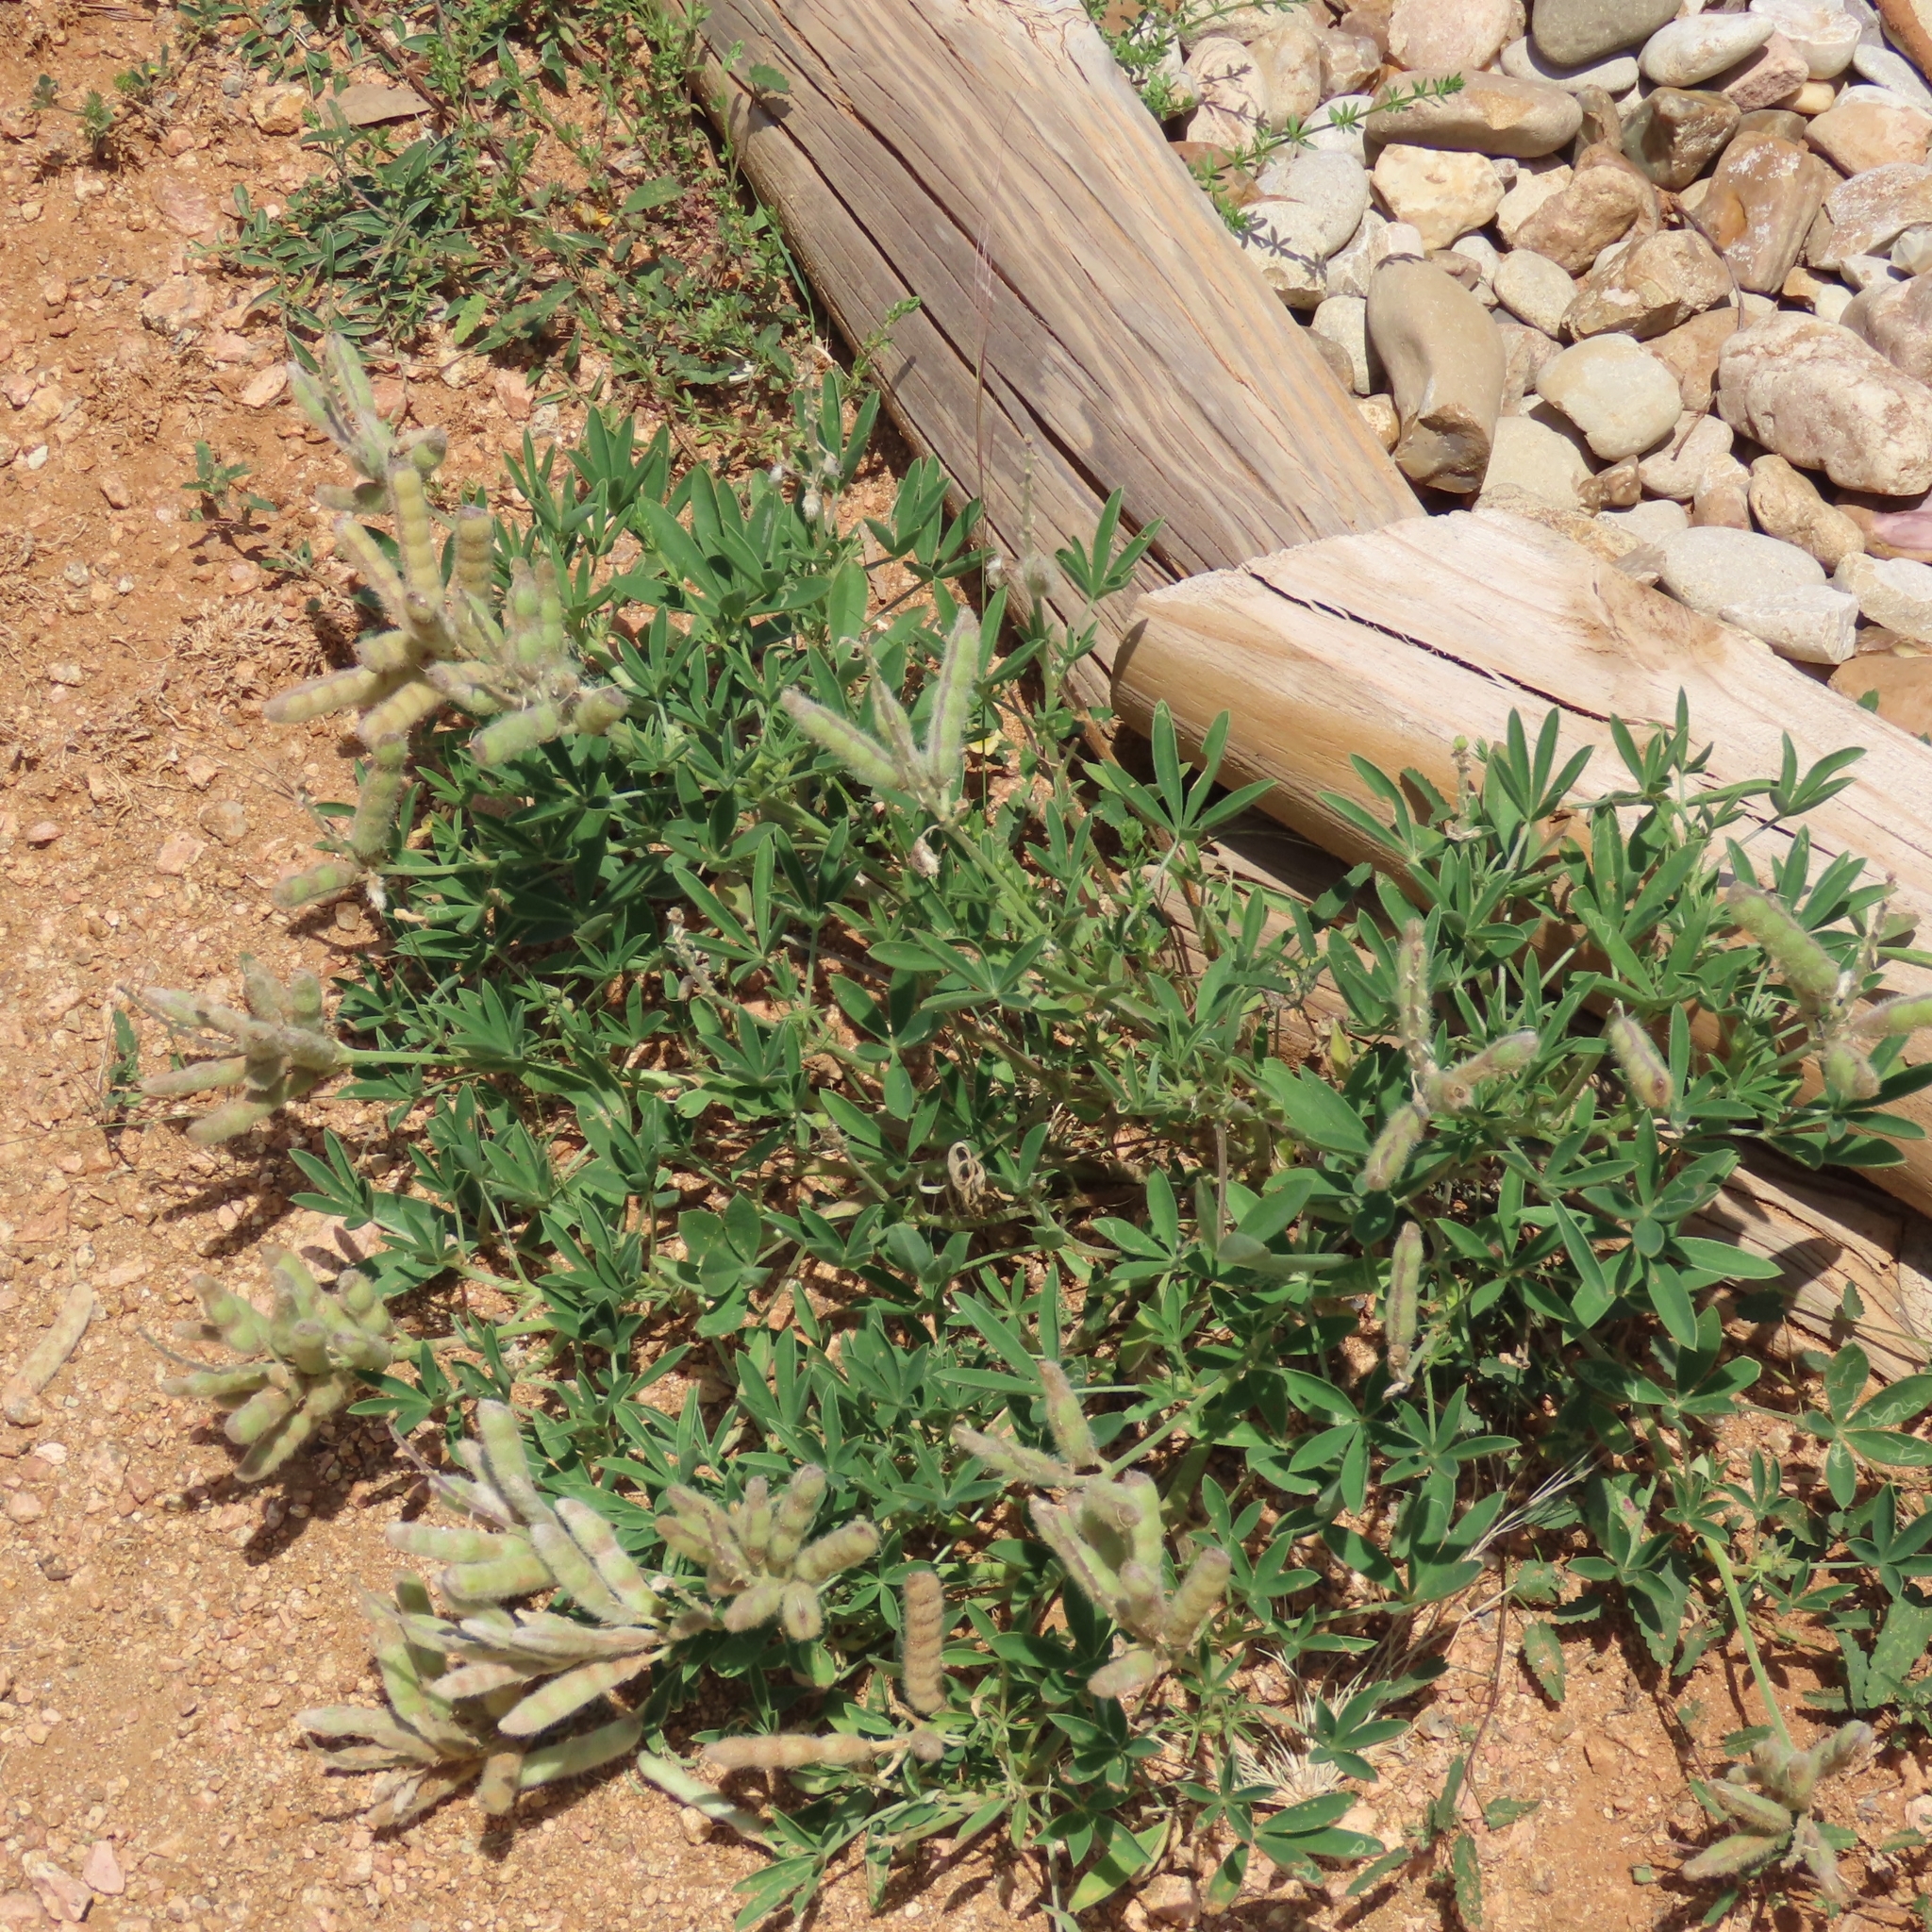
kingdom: Plantae
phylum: Tracheophyta
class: Magnoliopsida
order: Fabales
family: Fabaceae
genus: Lupinus
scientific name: Lupinus texensis
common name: Texas bluebonnet
